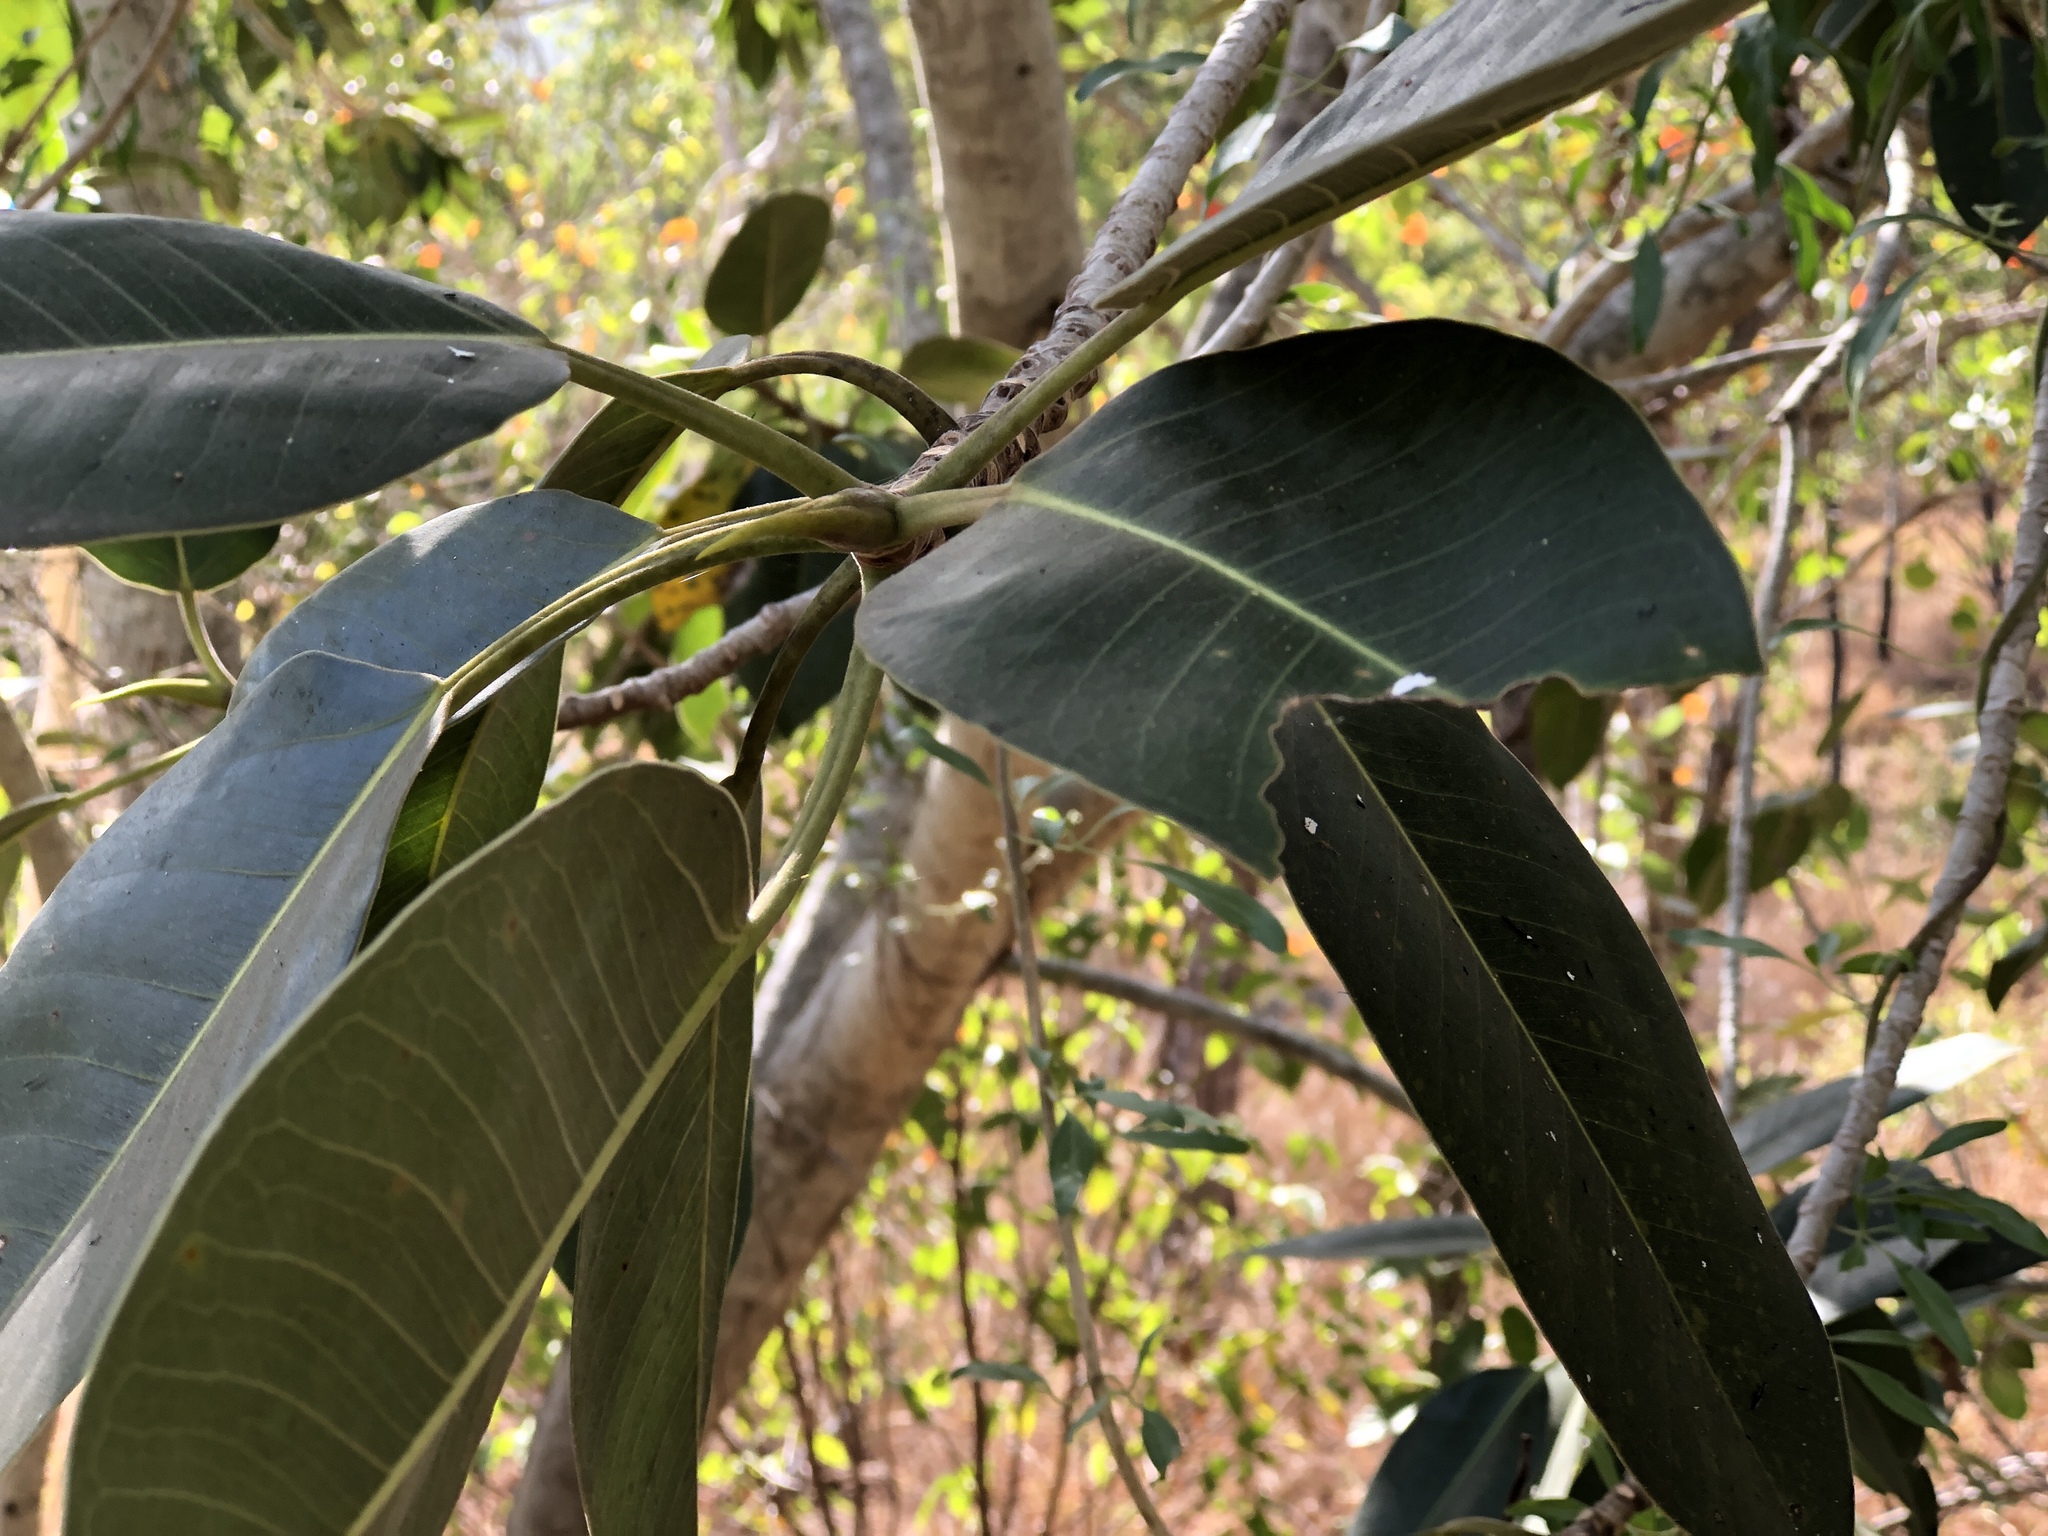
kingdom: Plantae
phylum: Tracheophyta
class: Magnoliopsida
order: Rosales
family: Moraceae
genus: Ficus
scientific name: Ficus rubiginosa
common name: Port jackson fig
